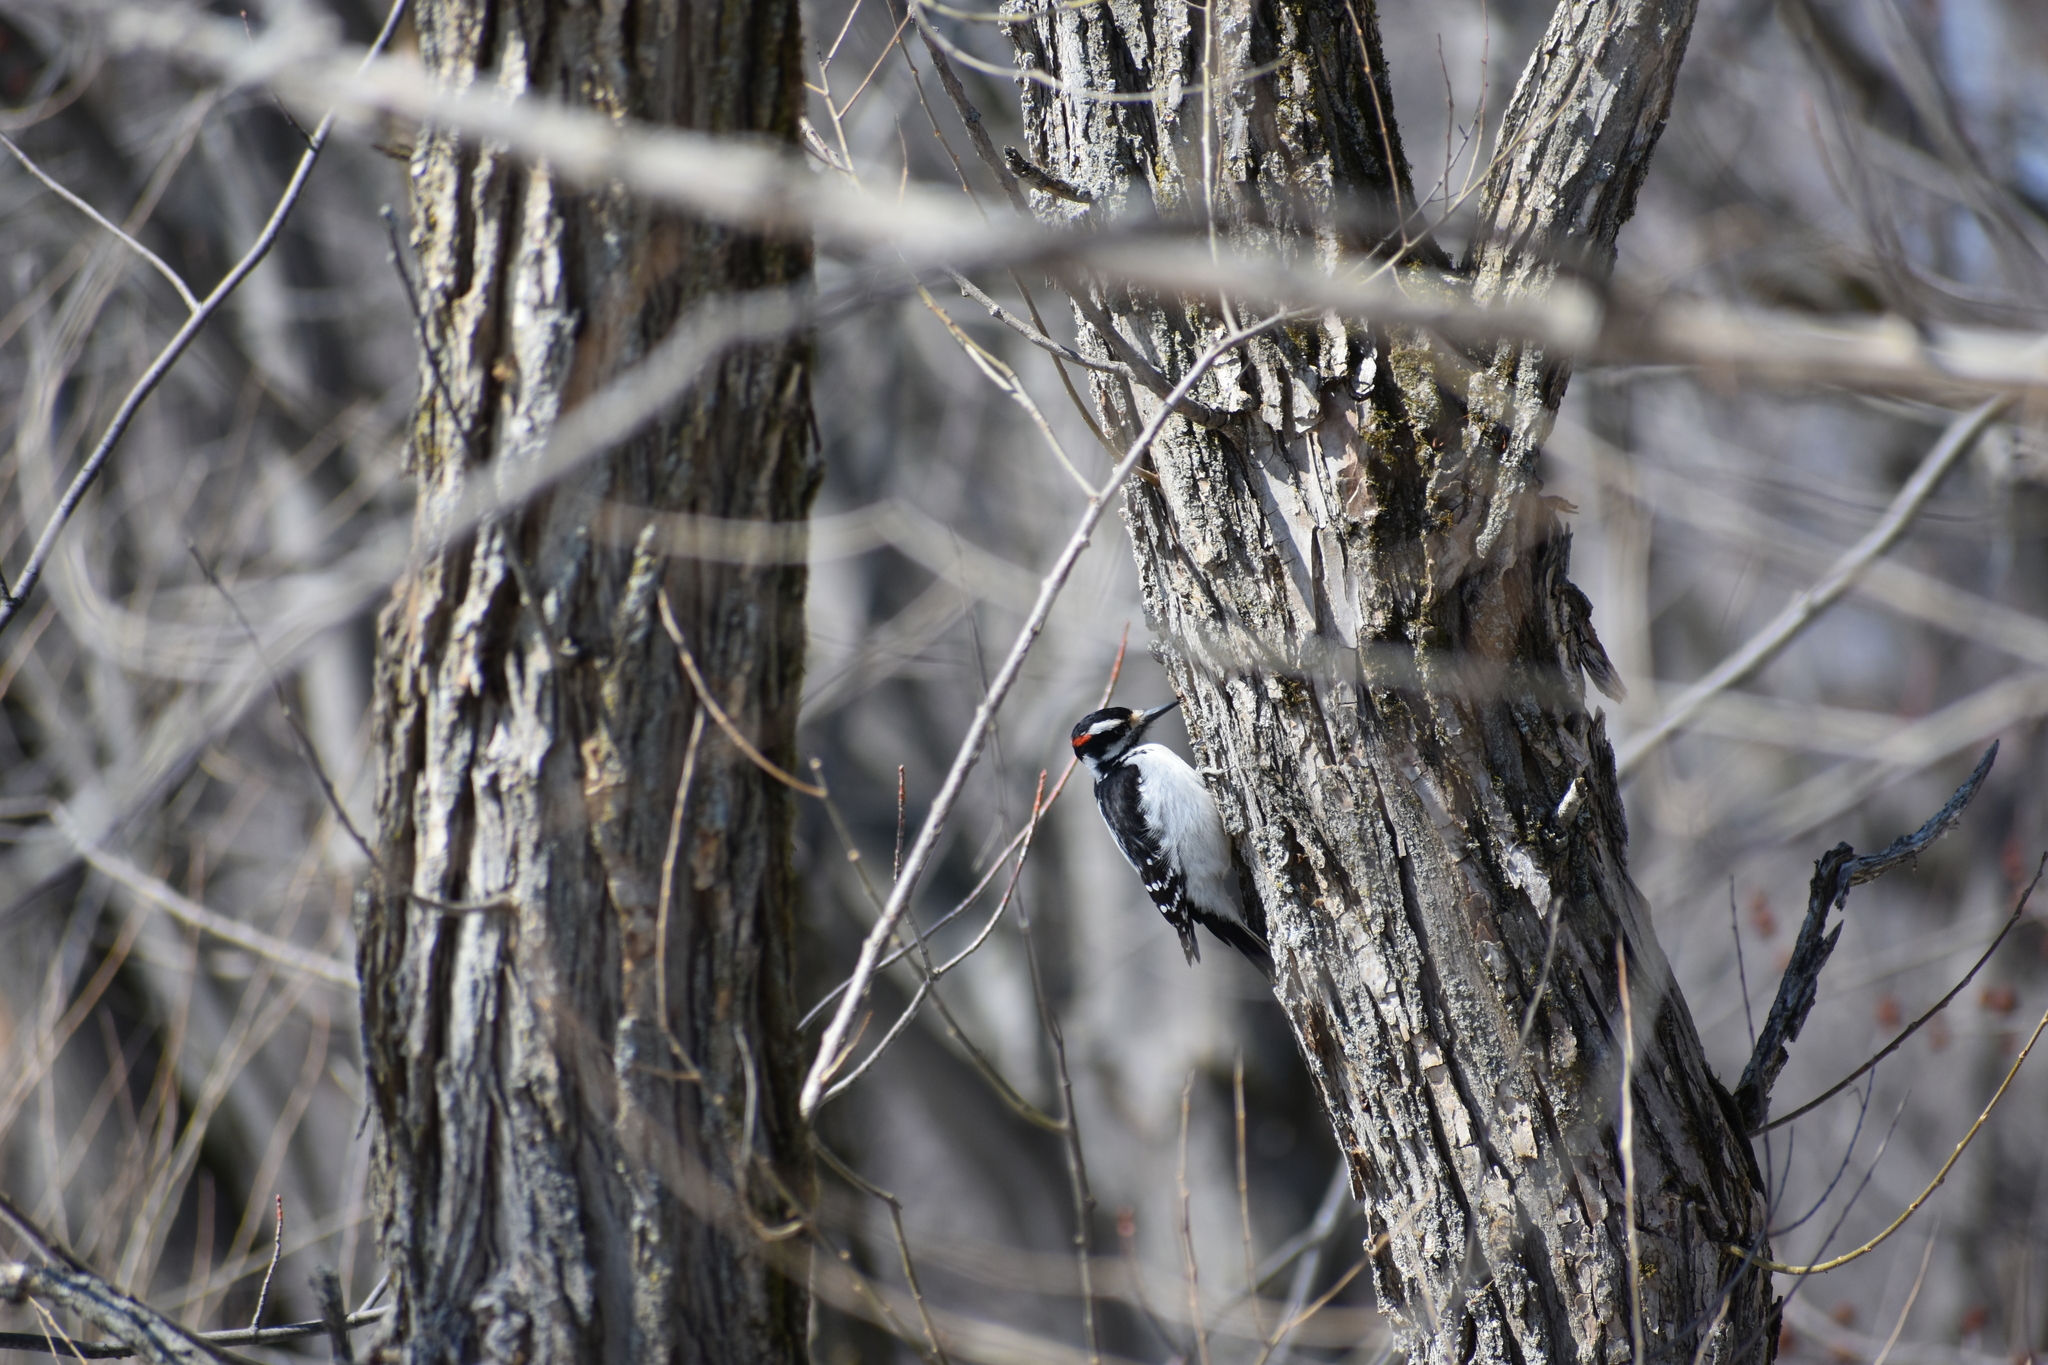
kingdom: Animalia
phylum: Chordata
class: Aves
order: Piciformes
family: Picidae
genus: Leuconotopicus
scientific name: Leuconotopicus villosus
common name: Hairy woodpecker
